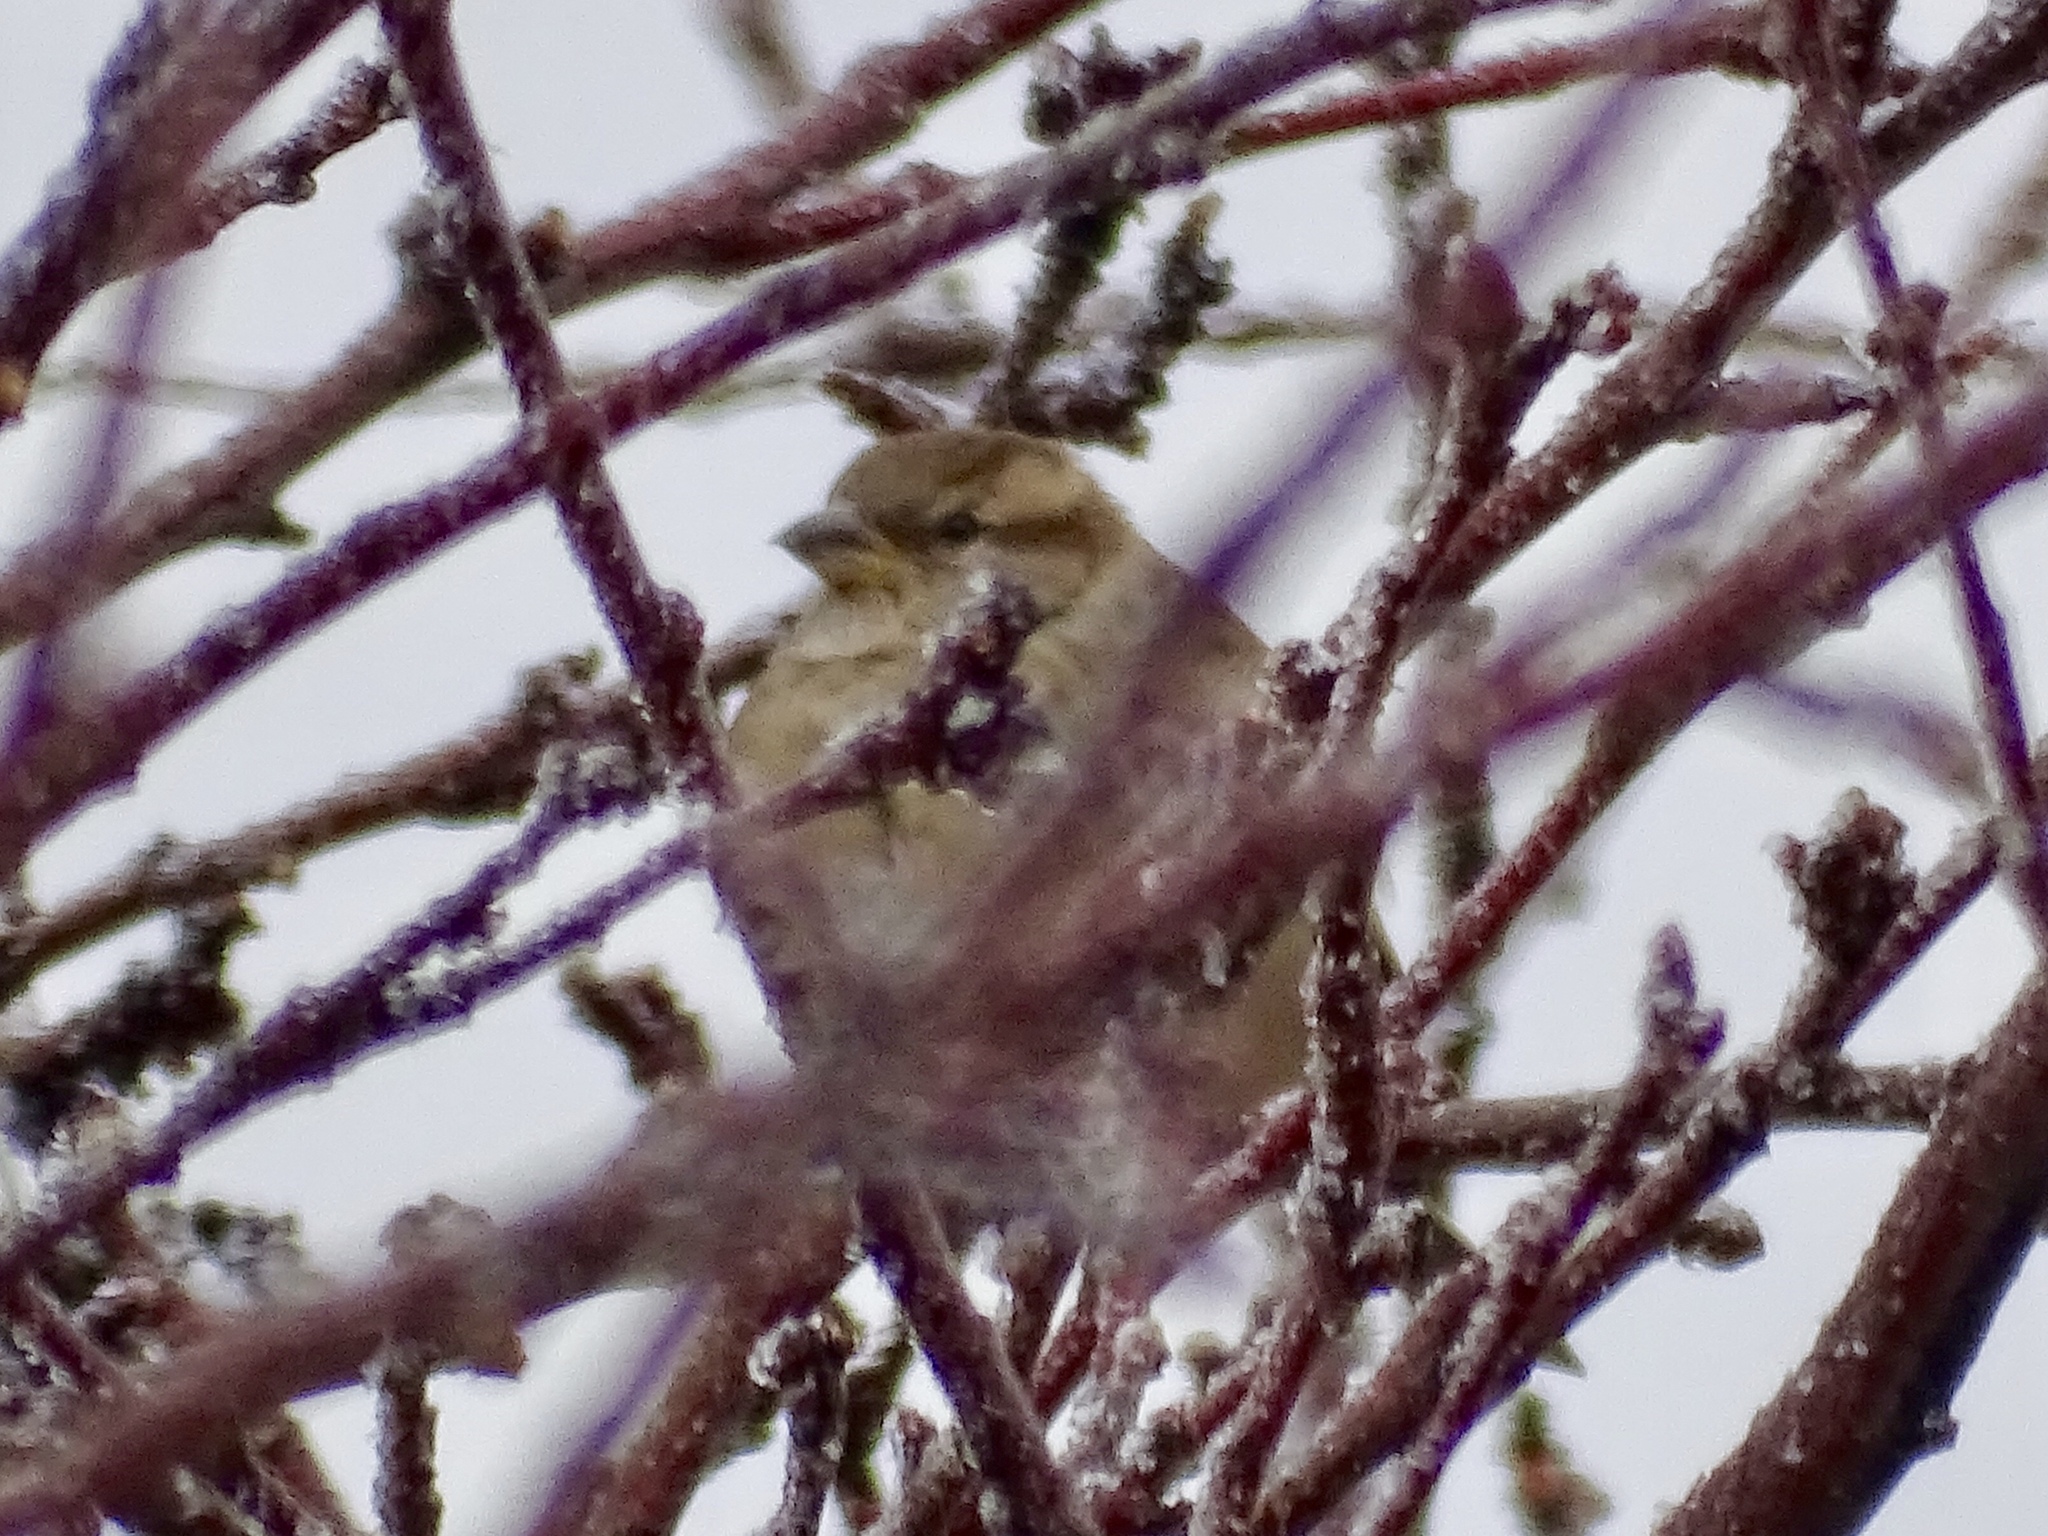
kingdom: Animalia
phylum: Chordata
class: Aves
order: Passeriformes
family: Passeridae
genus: Passer
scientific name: Passer domesticus
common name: House sparrow
